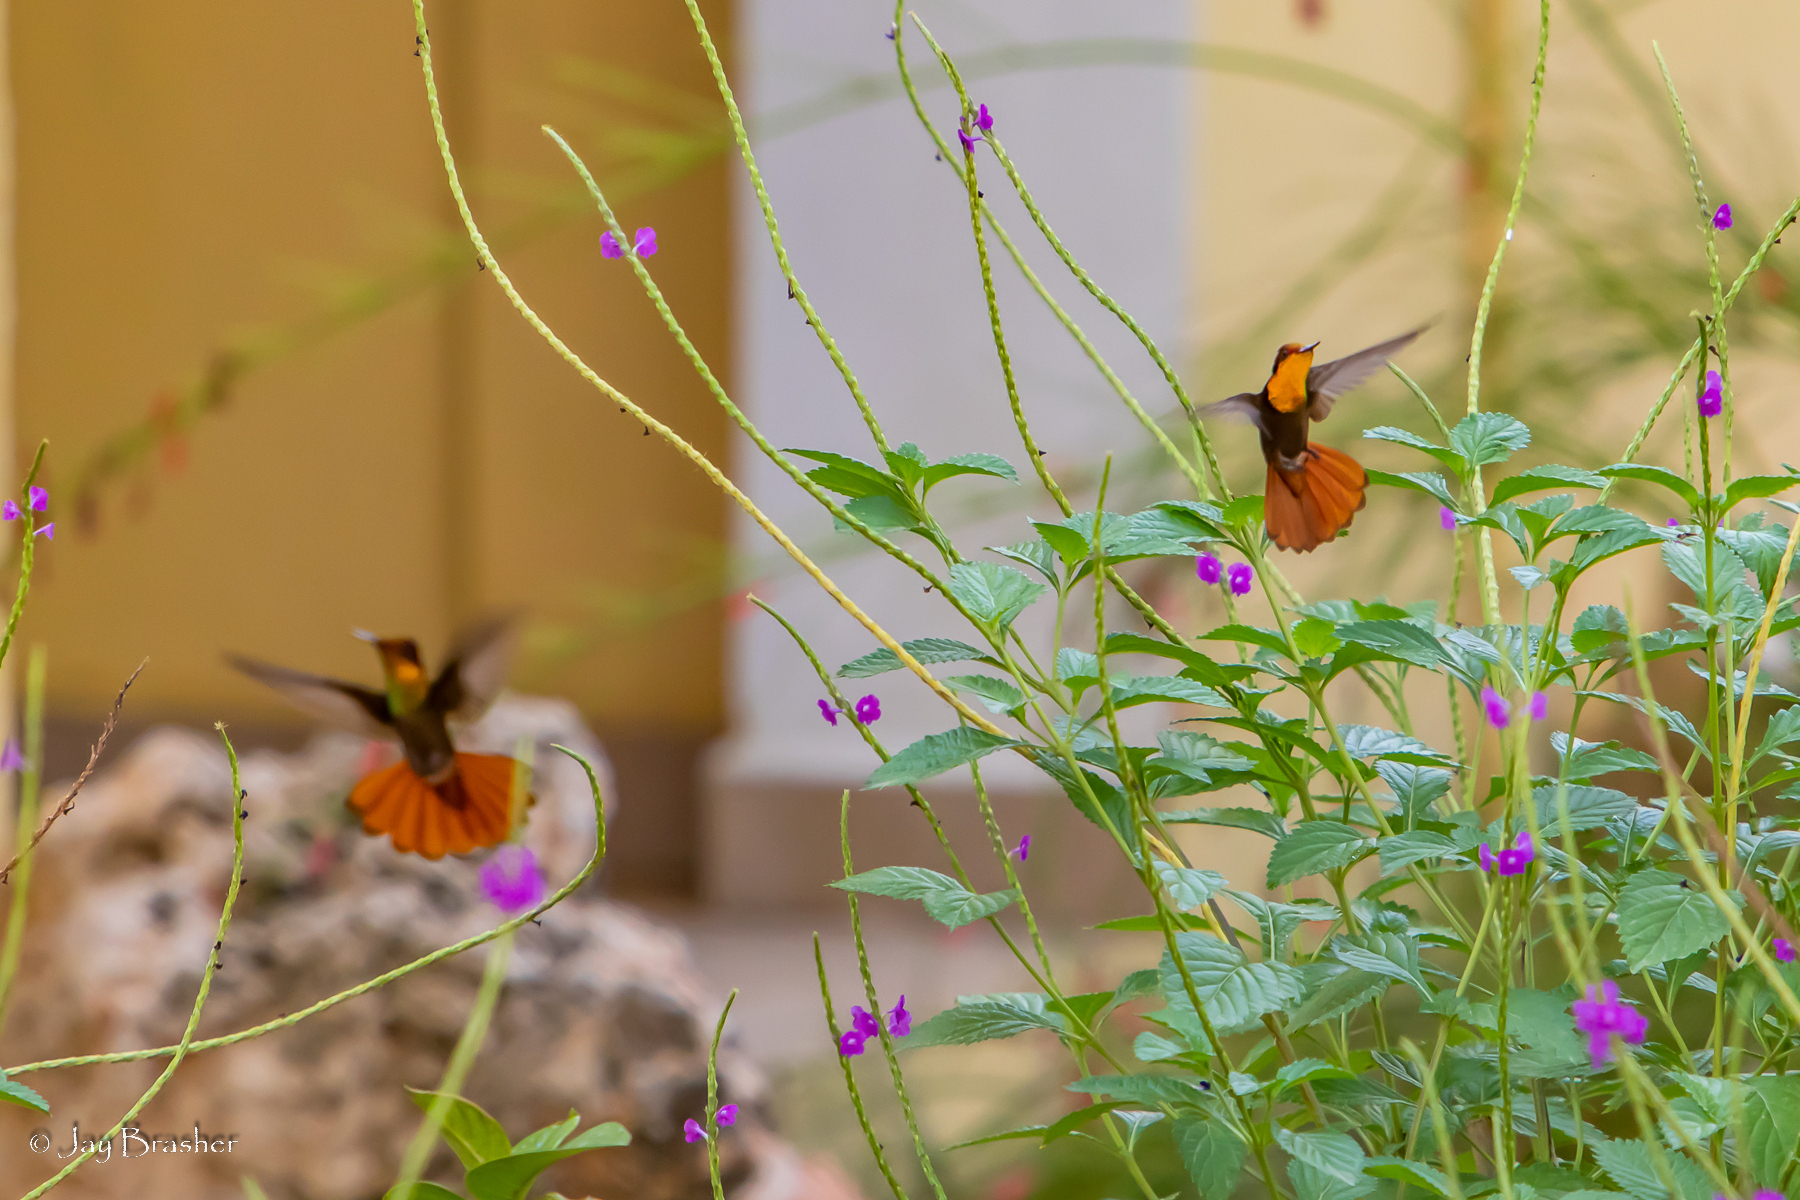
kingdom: Animalia
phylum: Chordata
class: Aves
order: Apodiformes
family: Trochilidae
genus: Chrysolampis
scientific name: Chrysolampis mosquitus
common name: Ruby-topaz hummingbird
